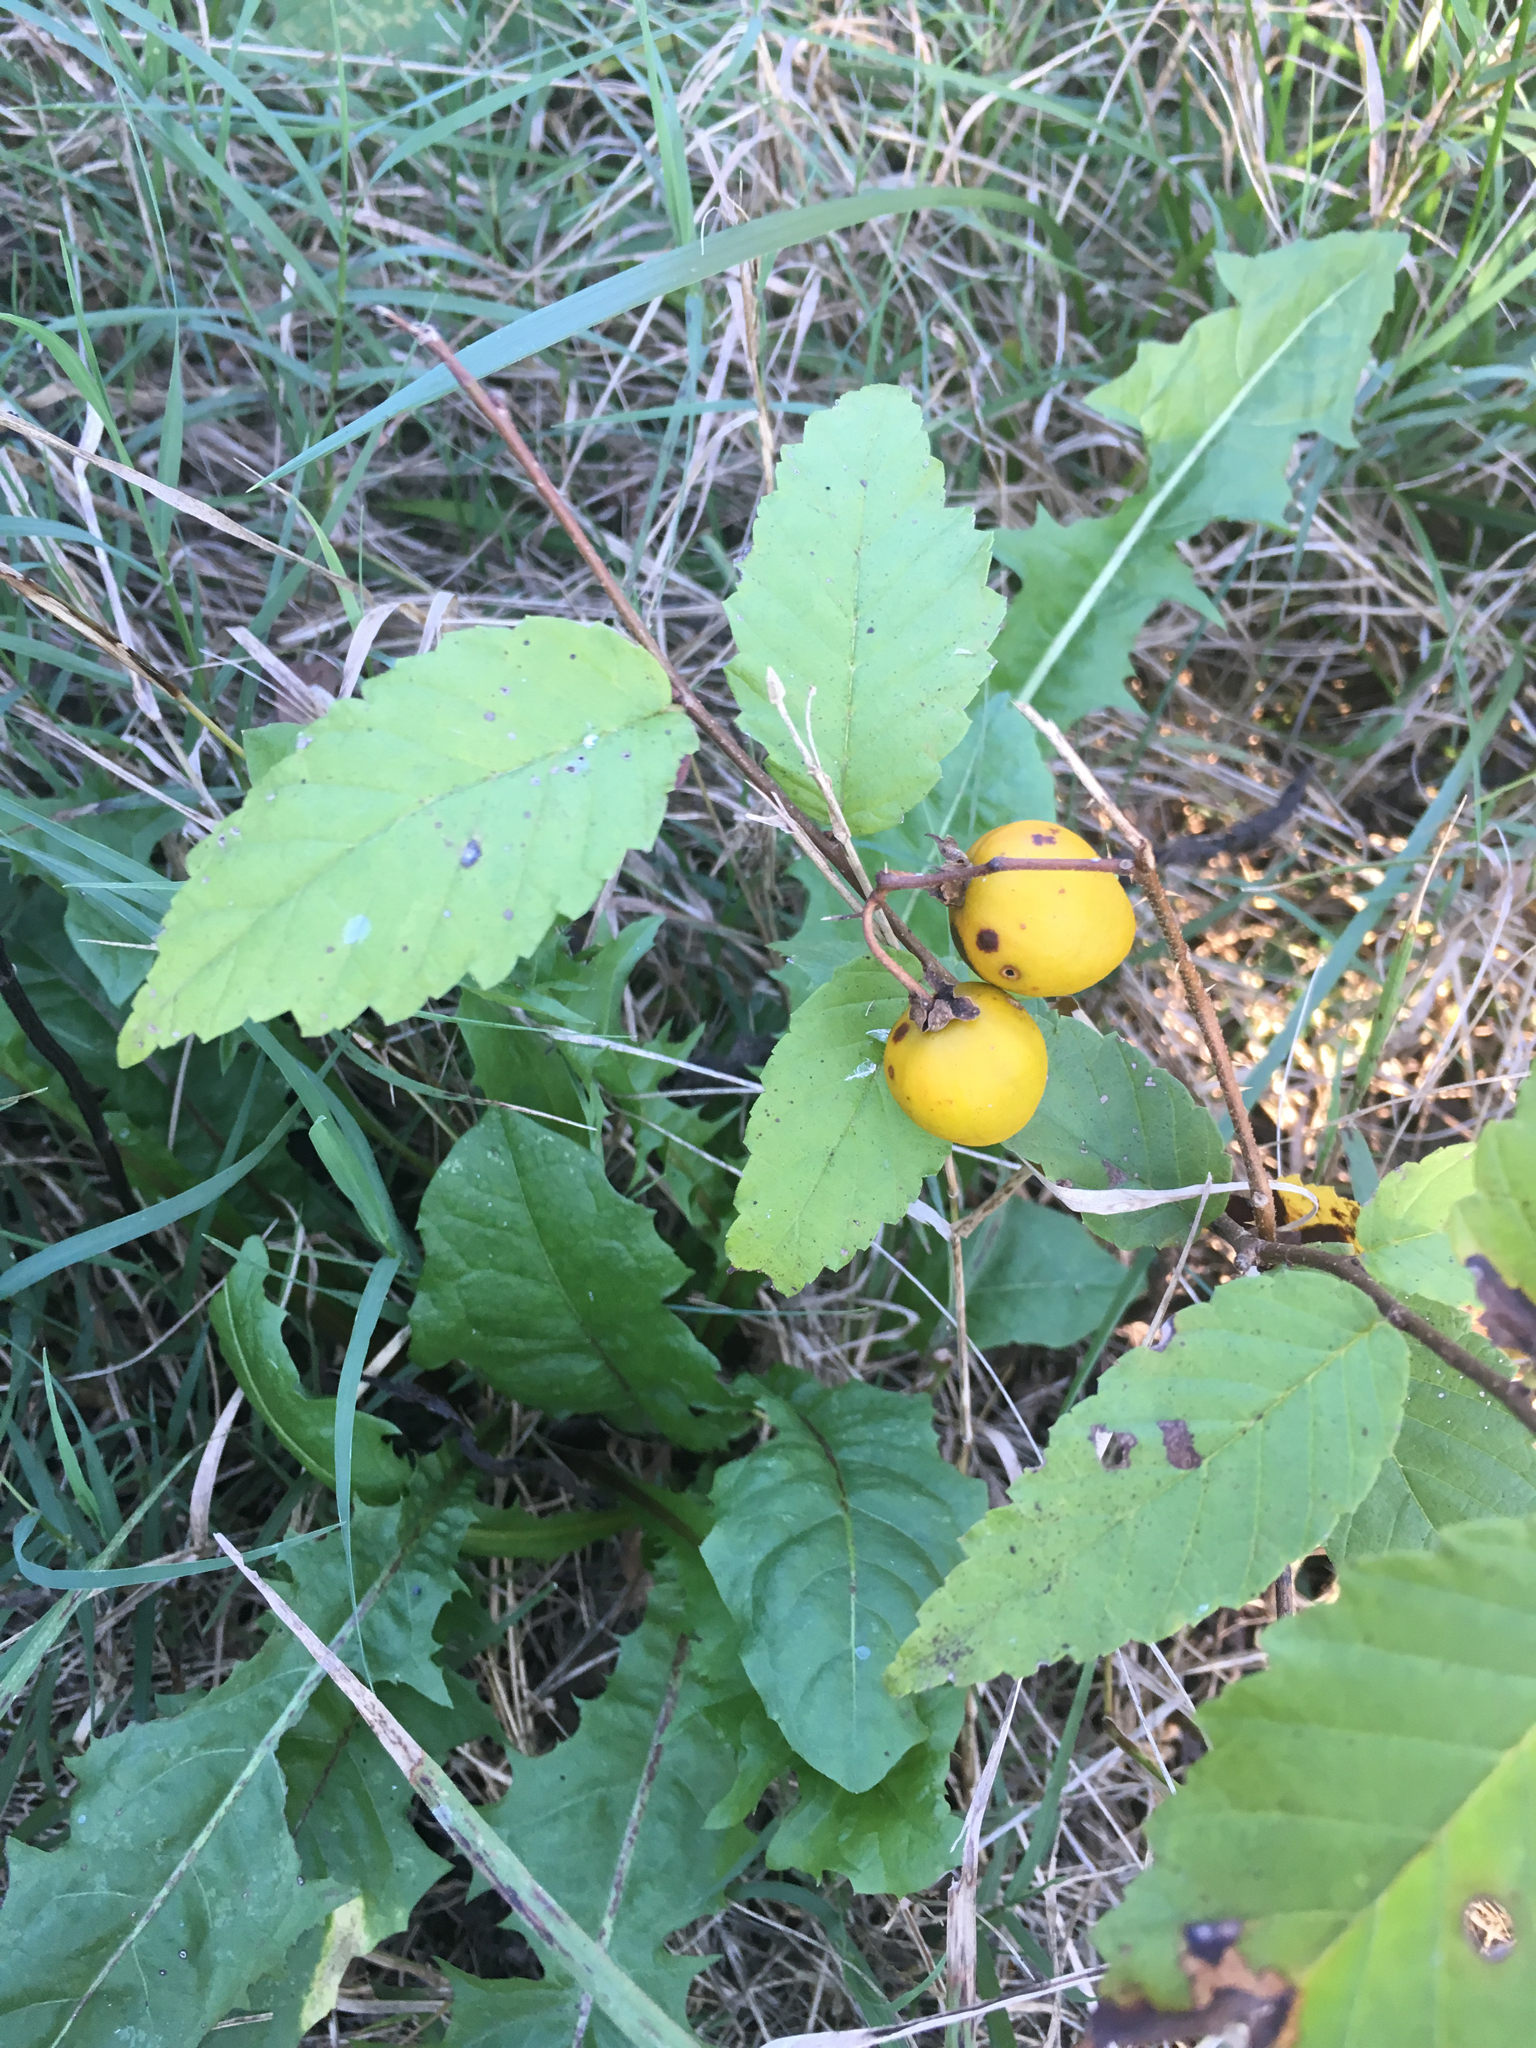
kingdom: Plantae
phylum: Tracheophyta
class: Magnoliopsida
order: Solanales
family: Solanaceae
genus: Solanum
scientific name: Solanum carolinense
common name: Horse-nettle
